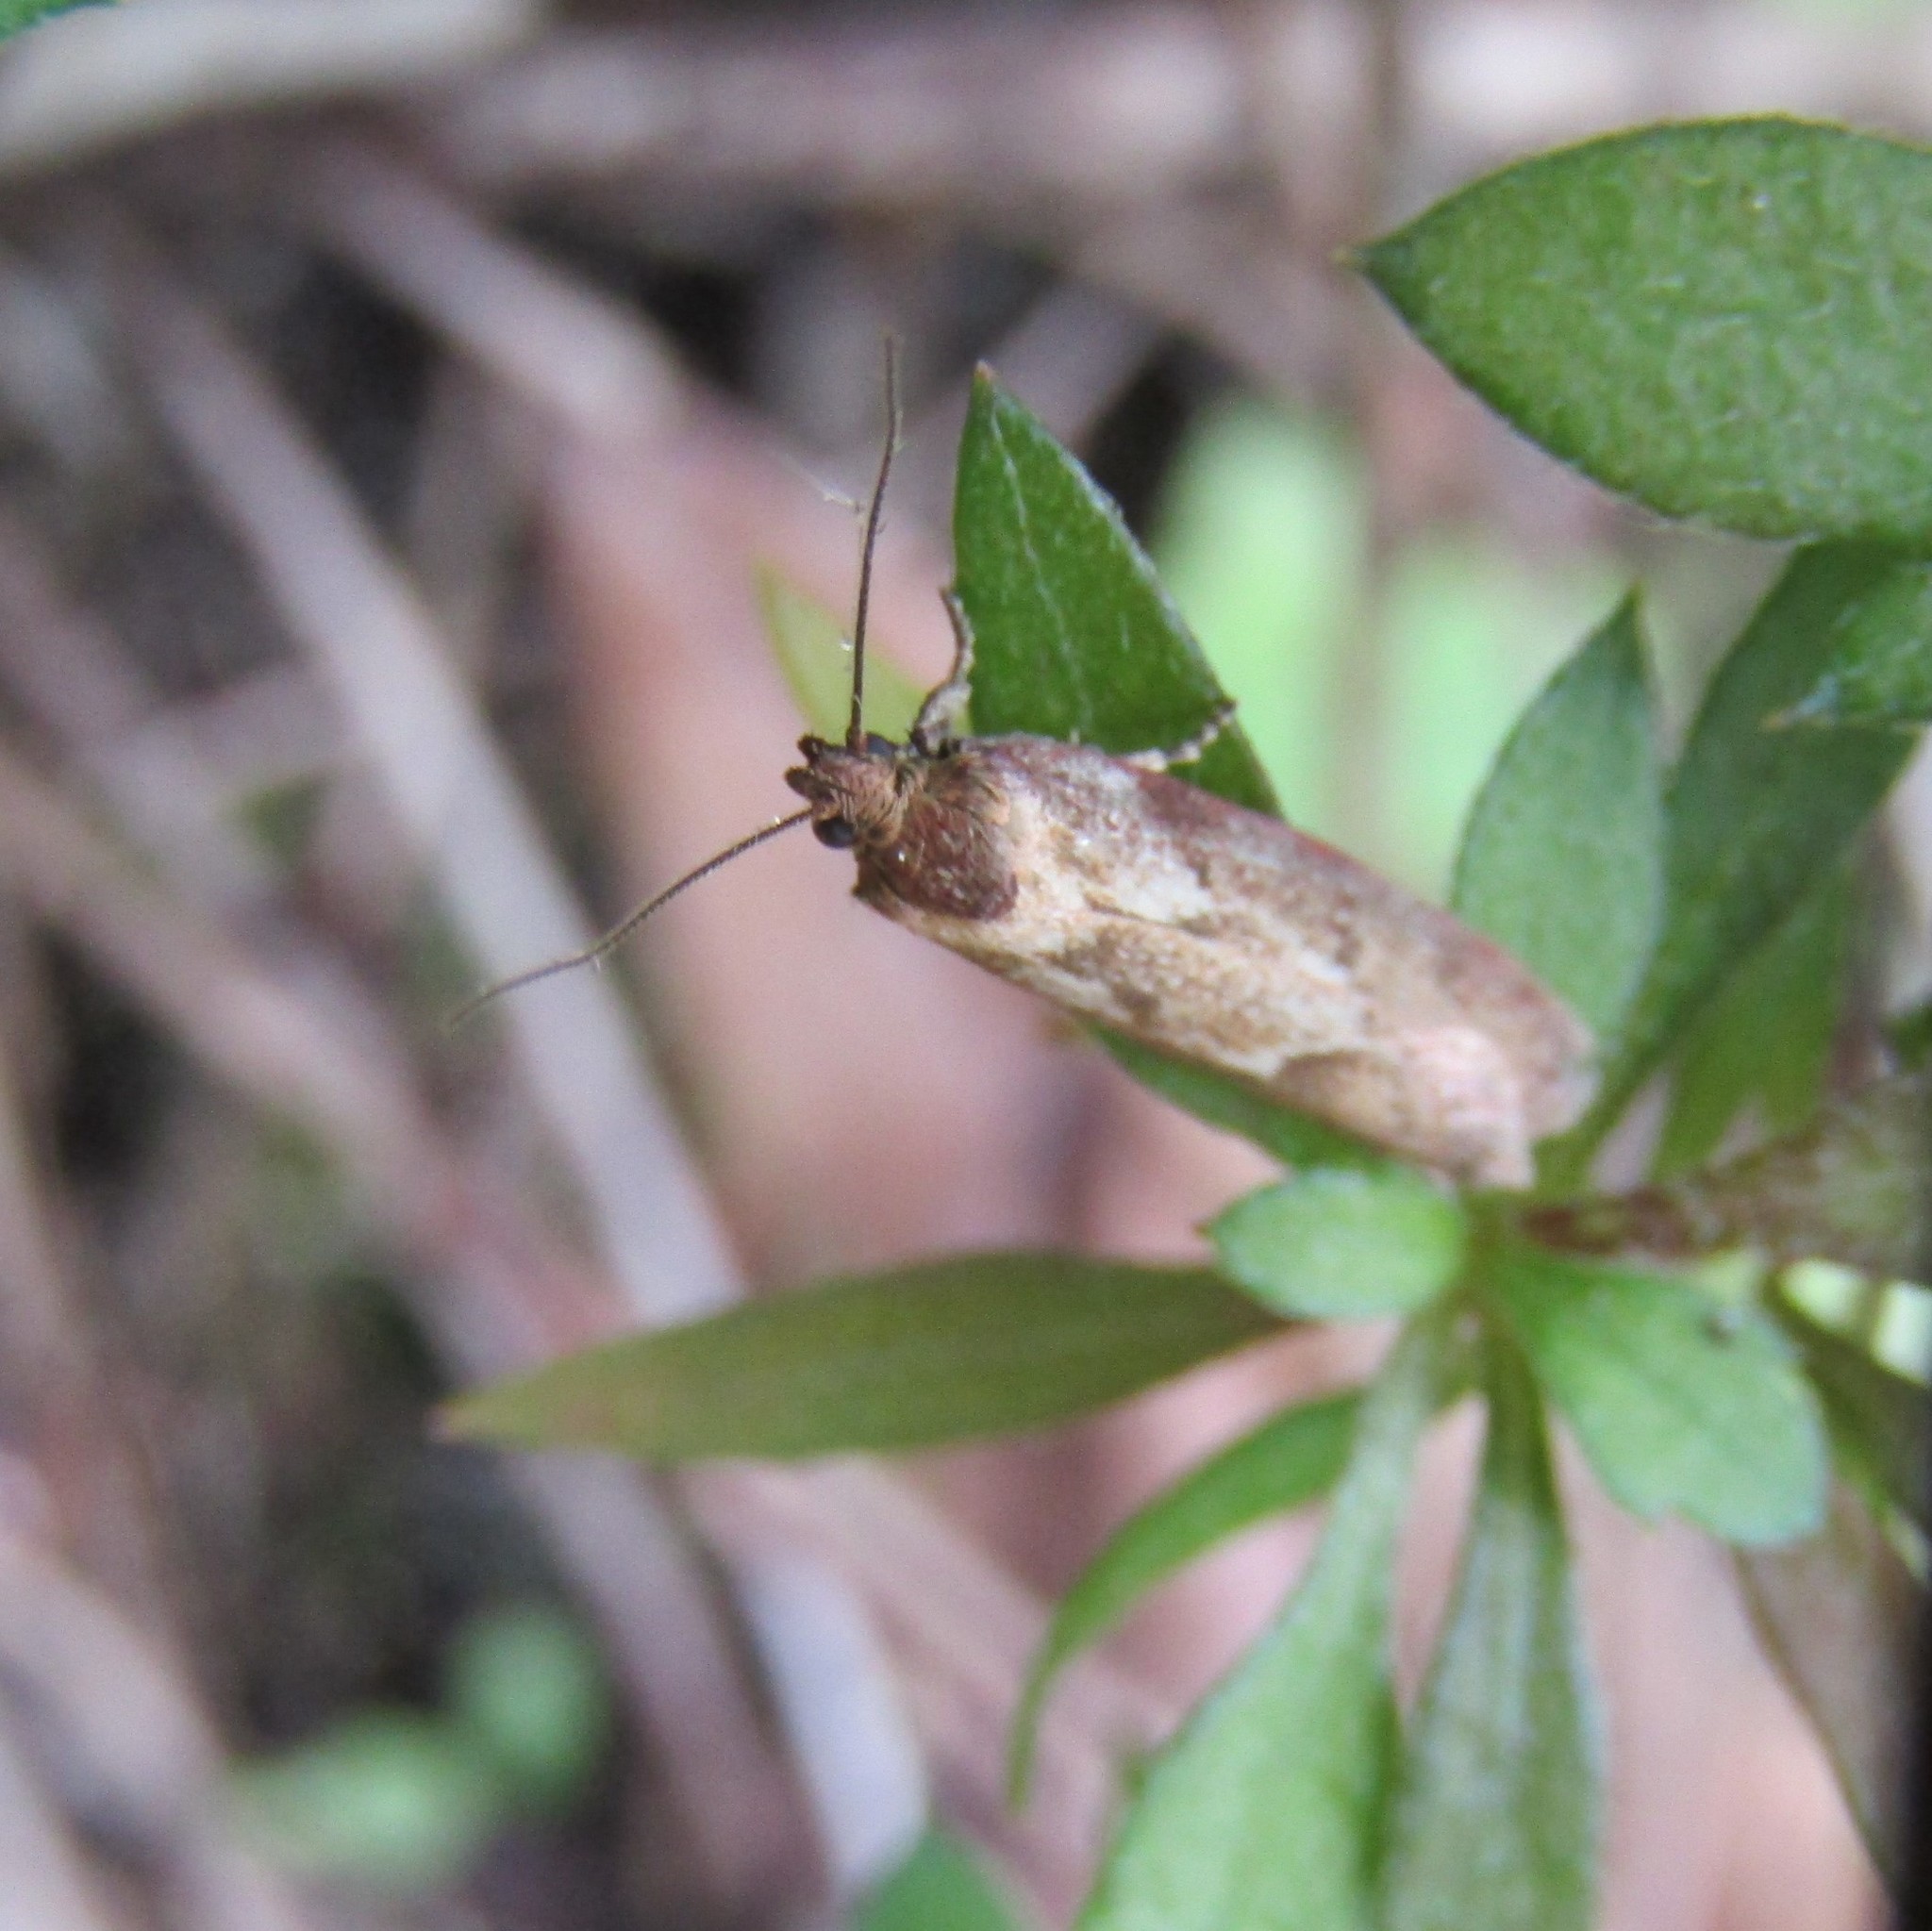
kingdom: Animalia
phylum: Arthropoda
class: Insecta
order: Lepidoptera
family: Oecophoridae
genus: Chersadaula
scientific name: Chersadaula ochrogastra
